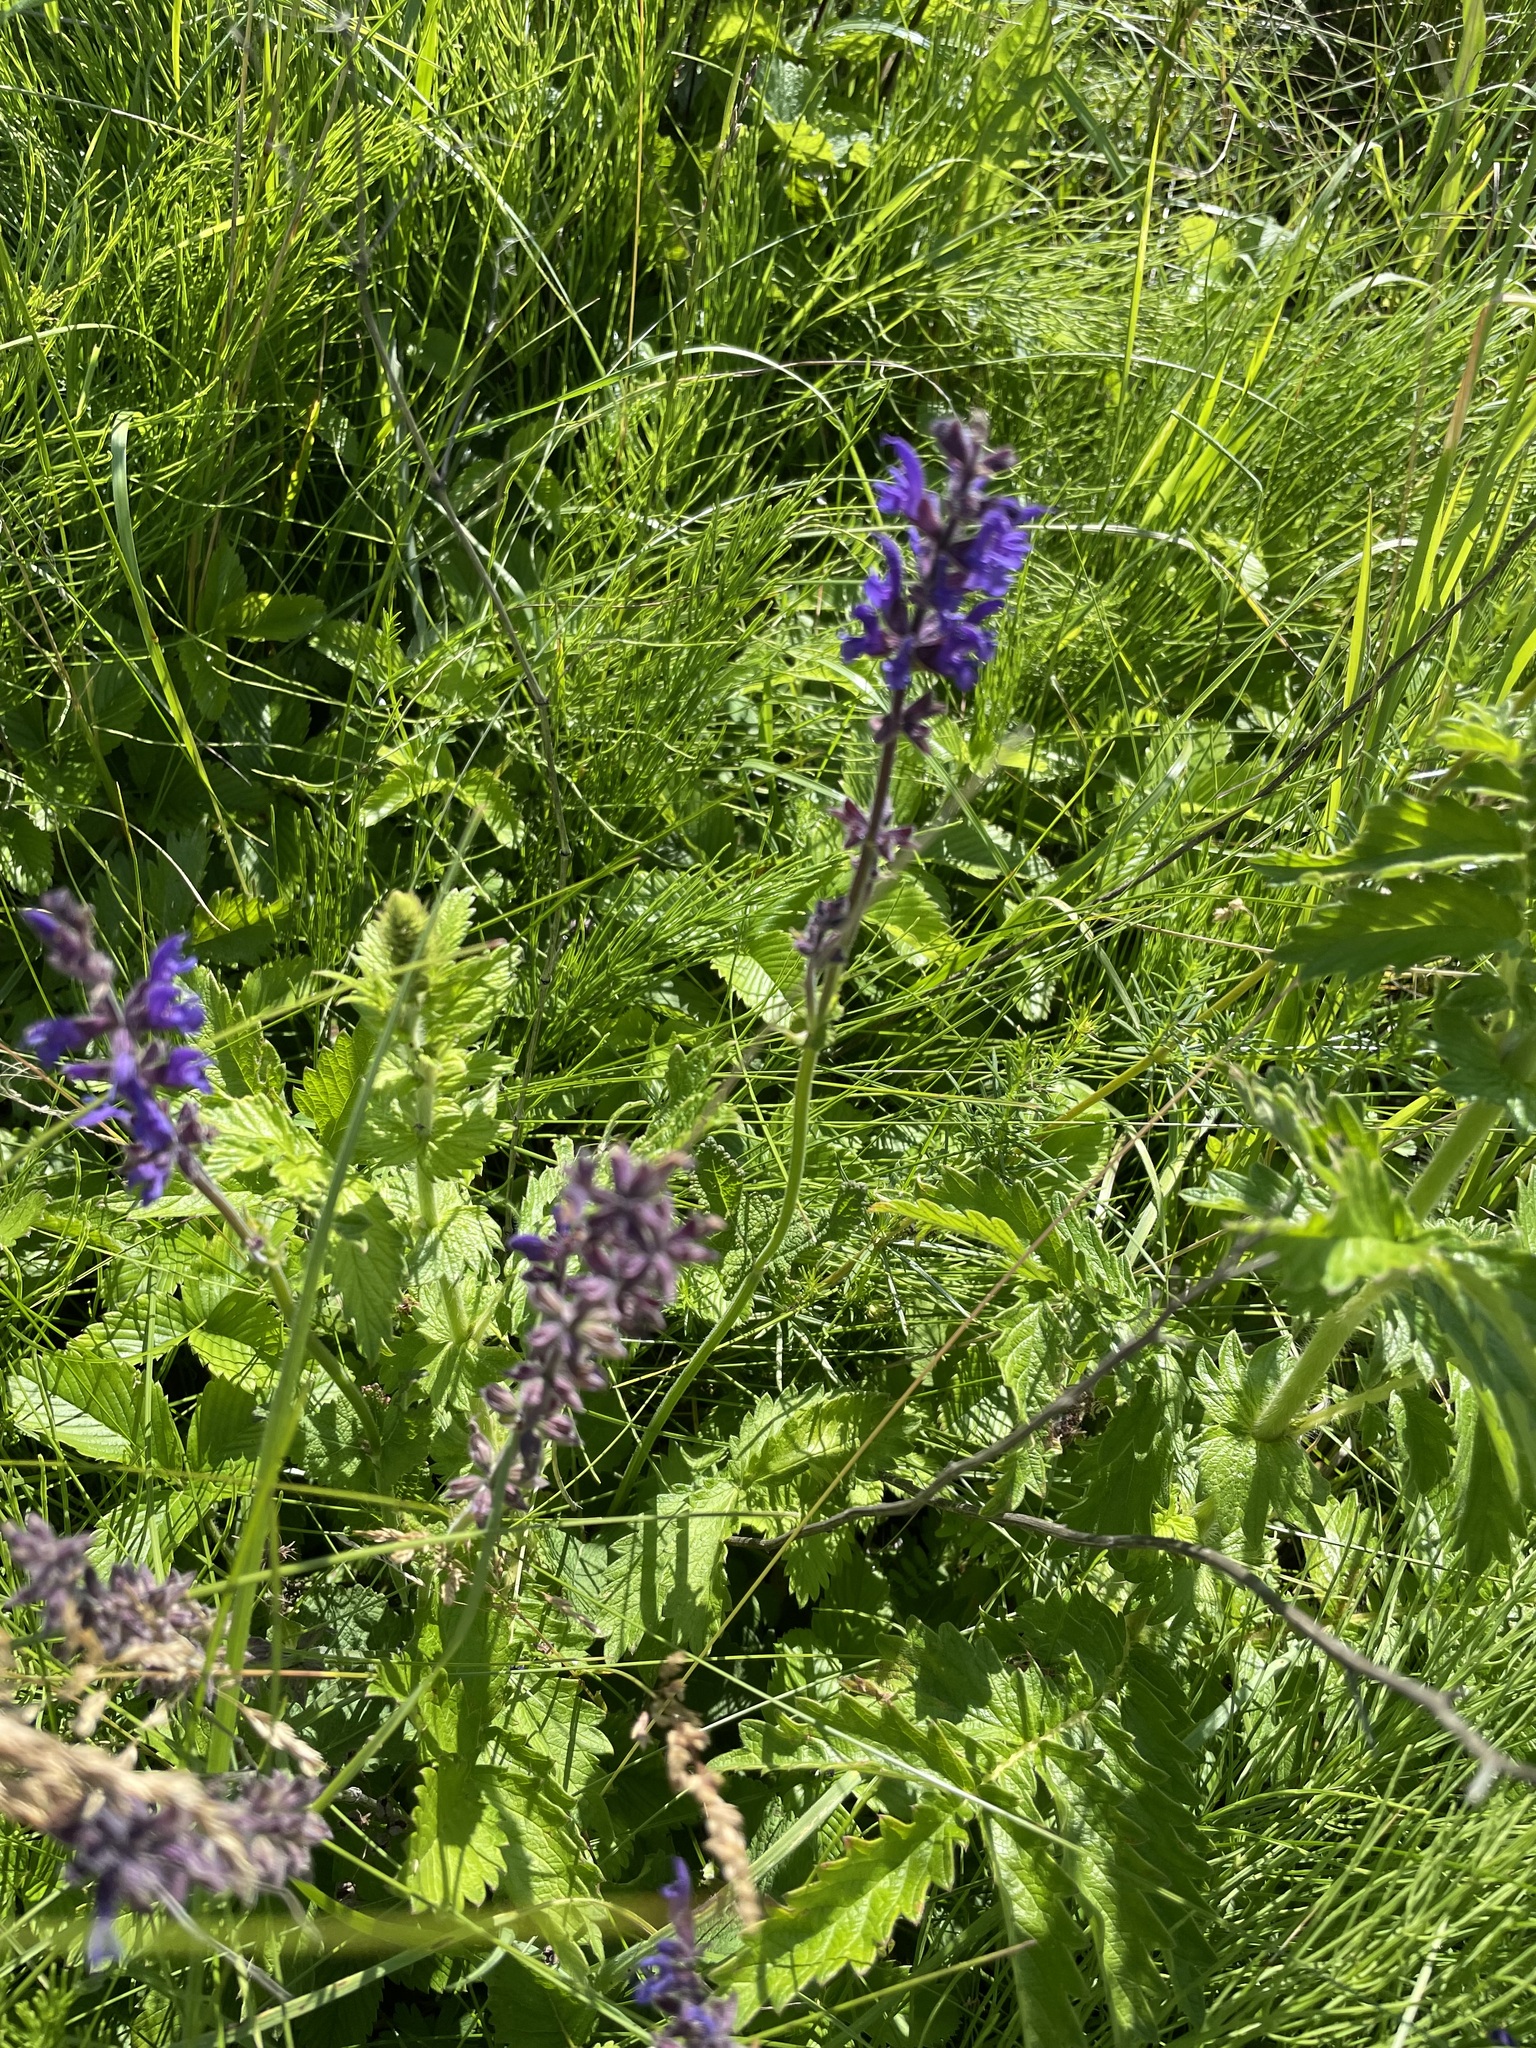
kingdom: Plantae
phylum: Tracheophyta
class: Magnoliopsida
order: Lamiales
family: Lamiaceae
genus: Salvia
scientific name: Salvia dumetorum
